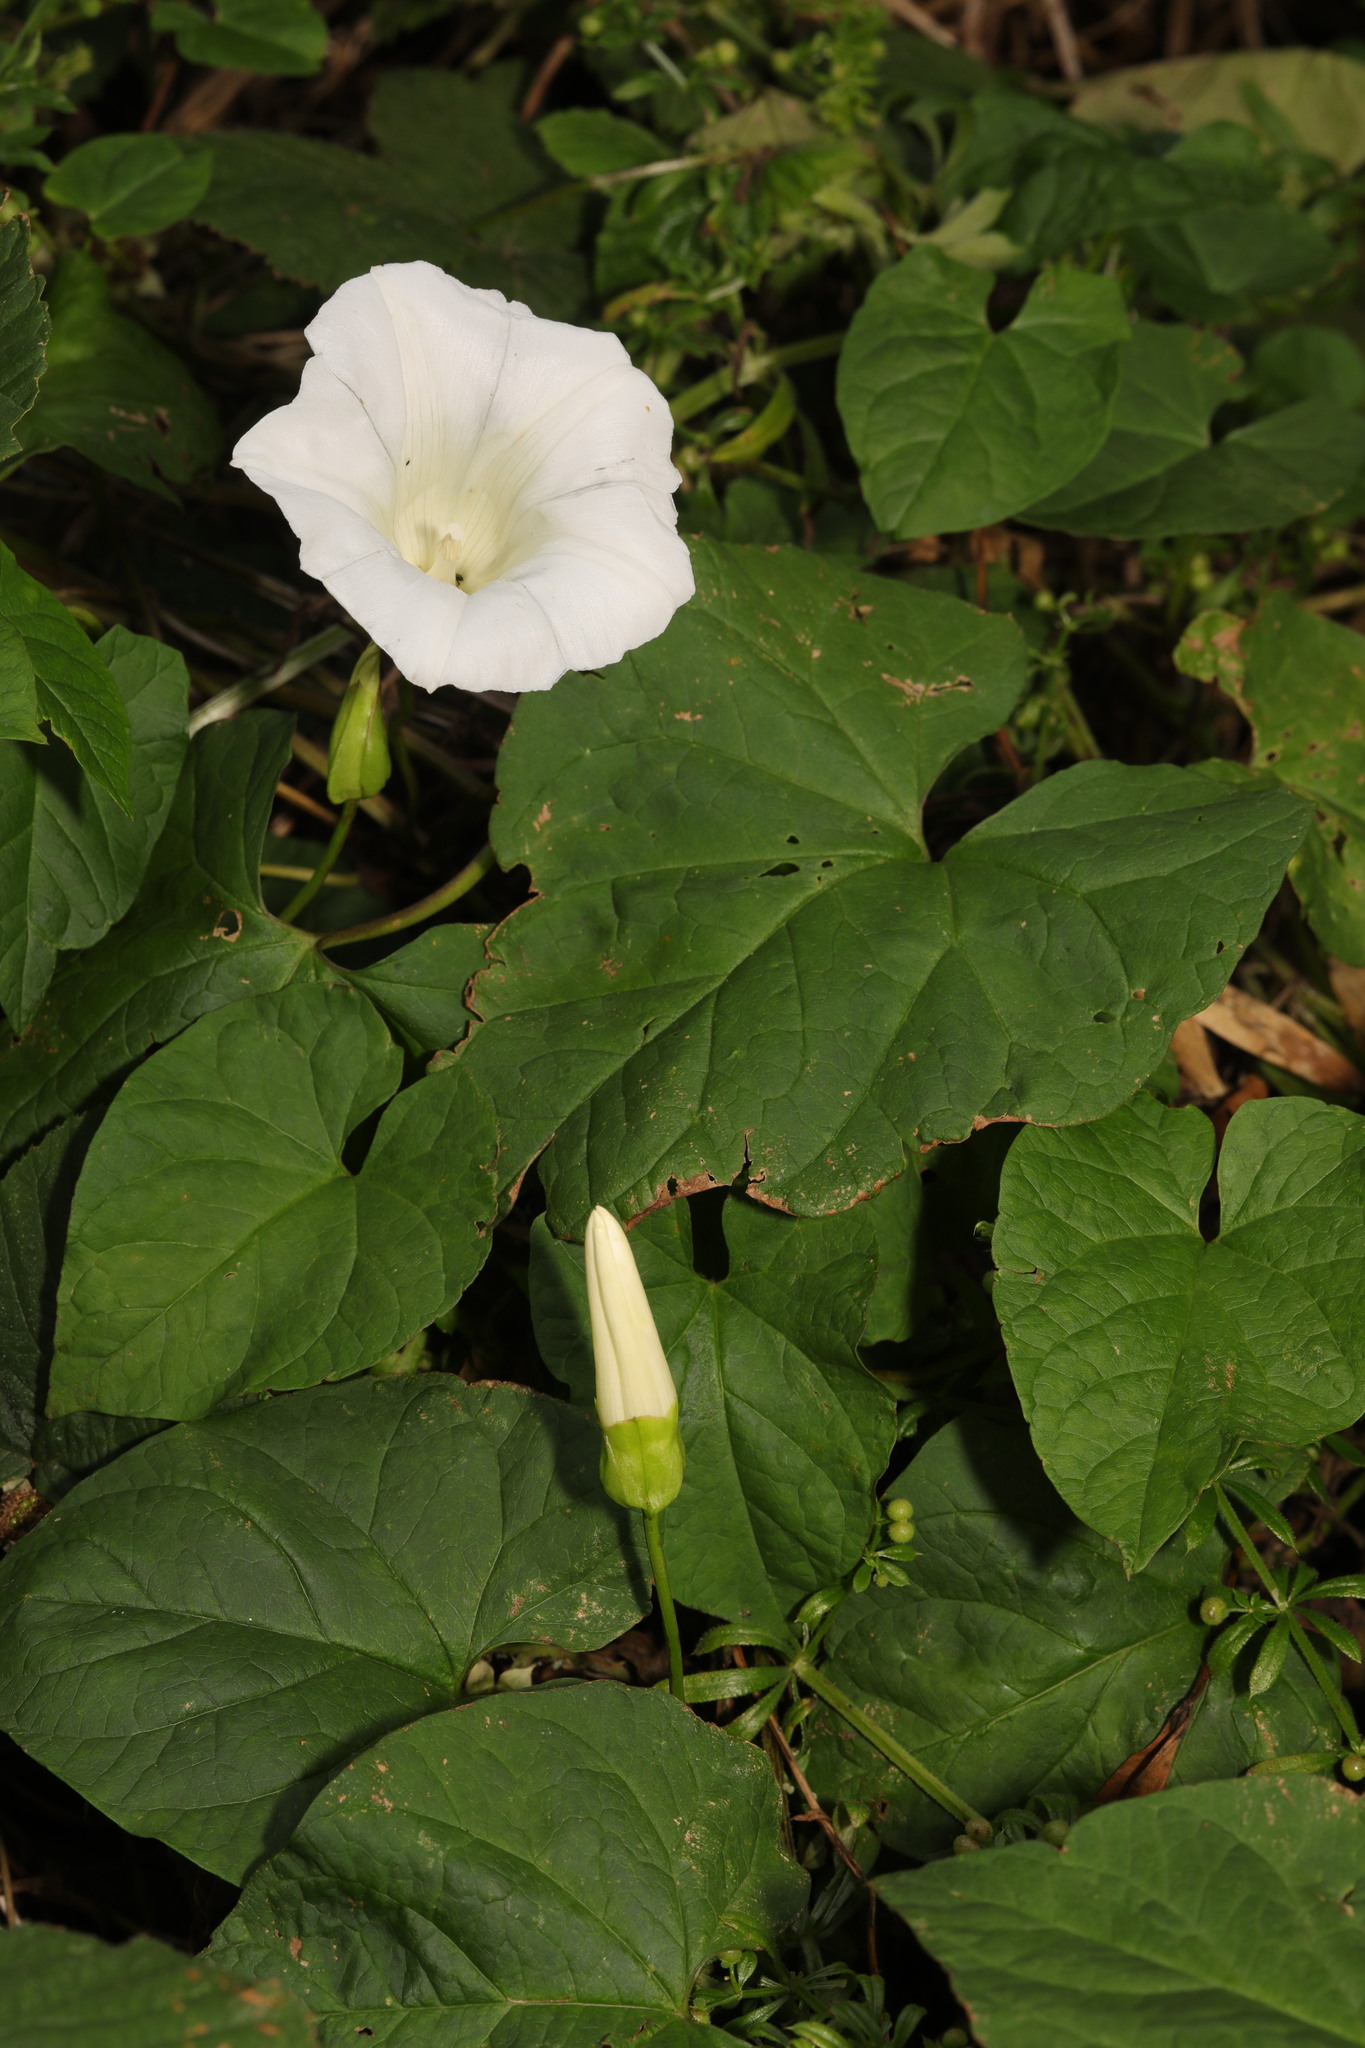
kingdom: Plantae
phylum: Tracheophyta
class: Magnoliopsida
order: Solanales
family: Convolvulaceae
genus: Calystegia
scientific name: Calystegia silvatica
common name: Large bindweed
